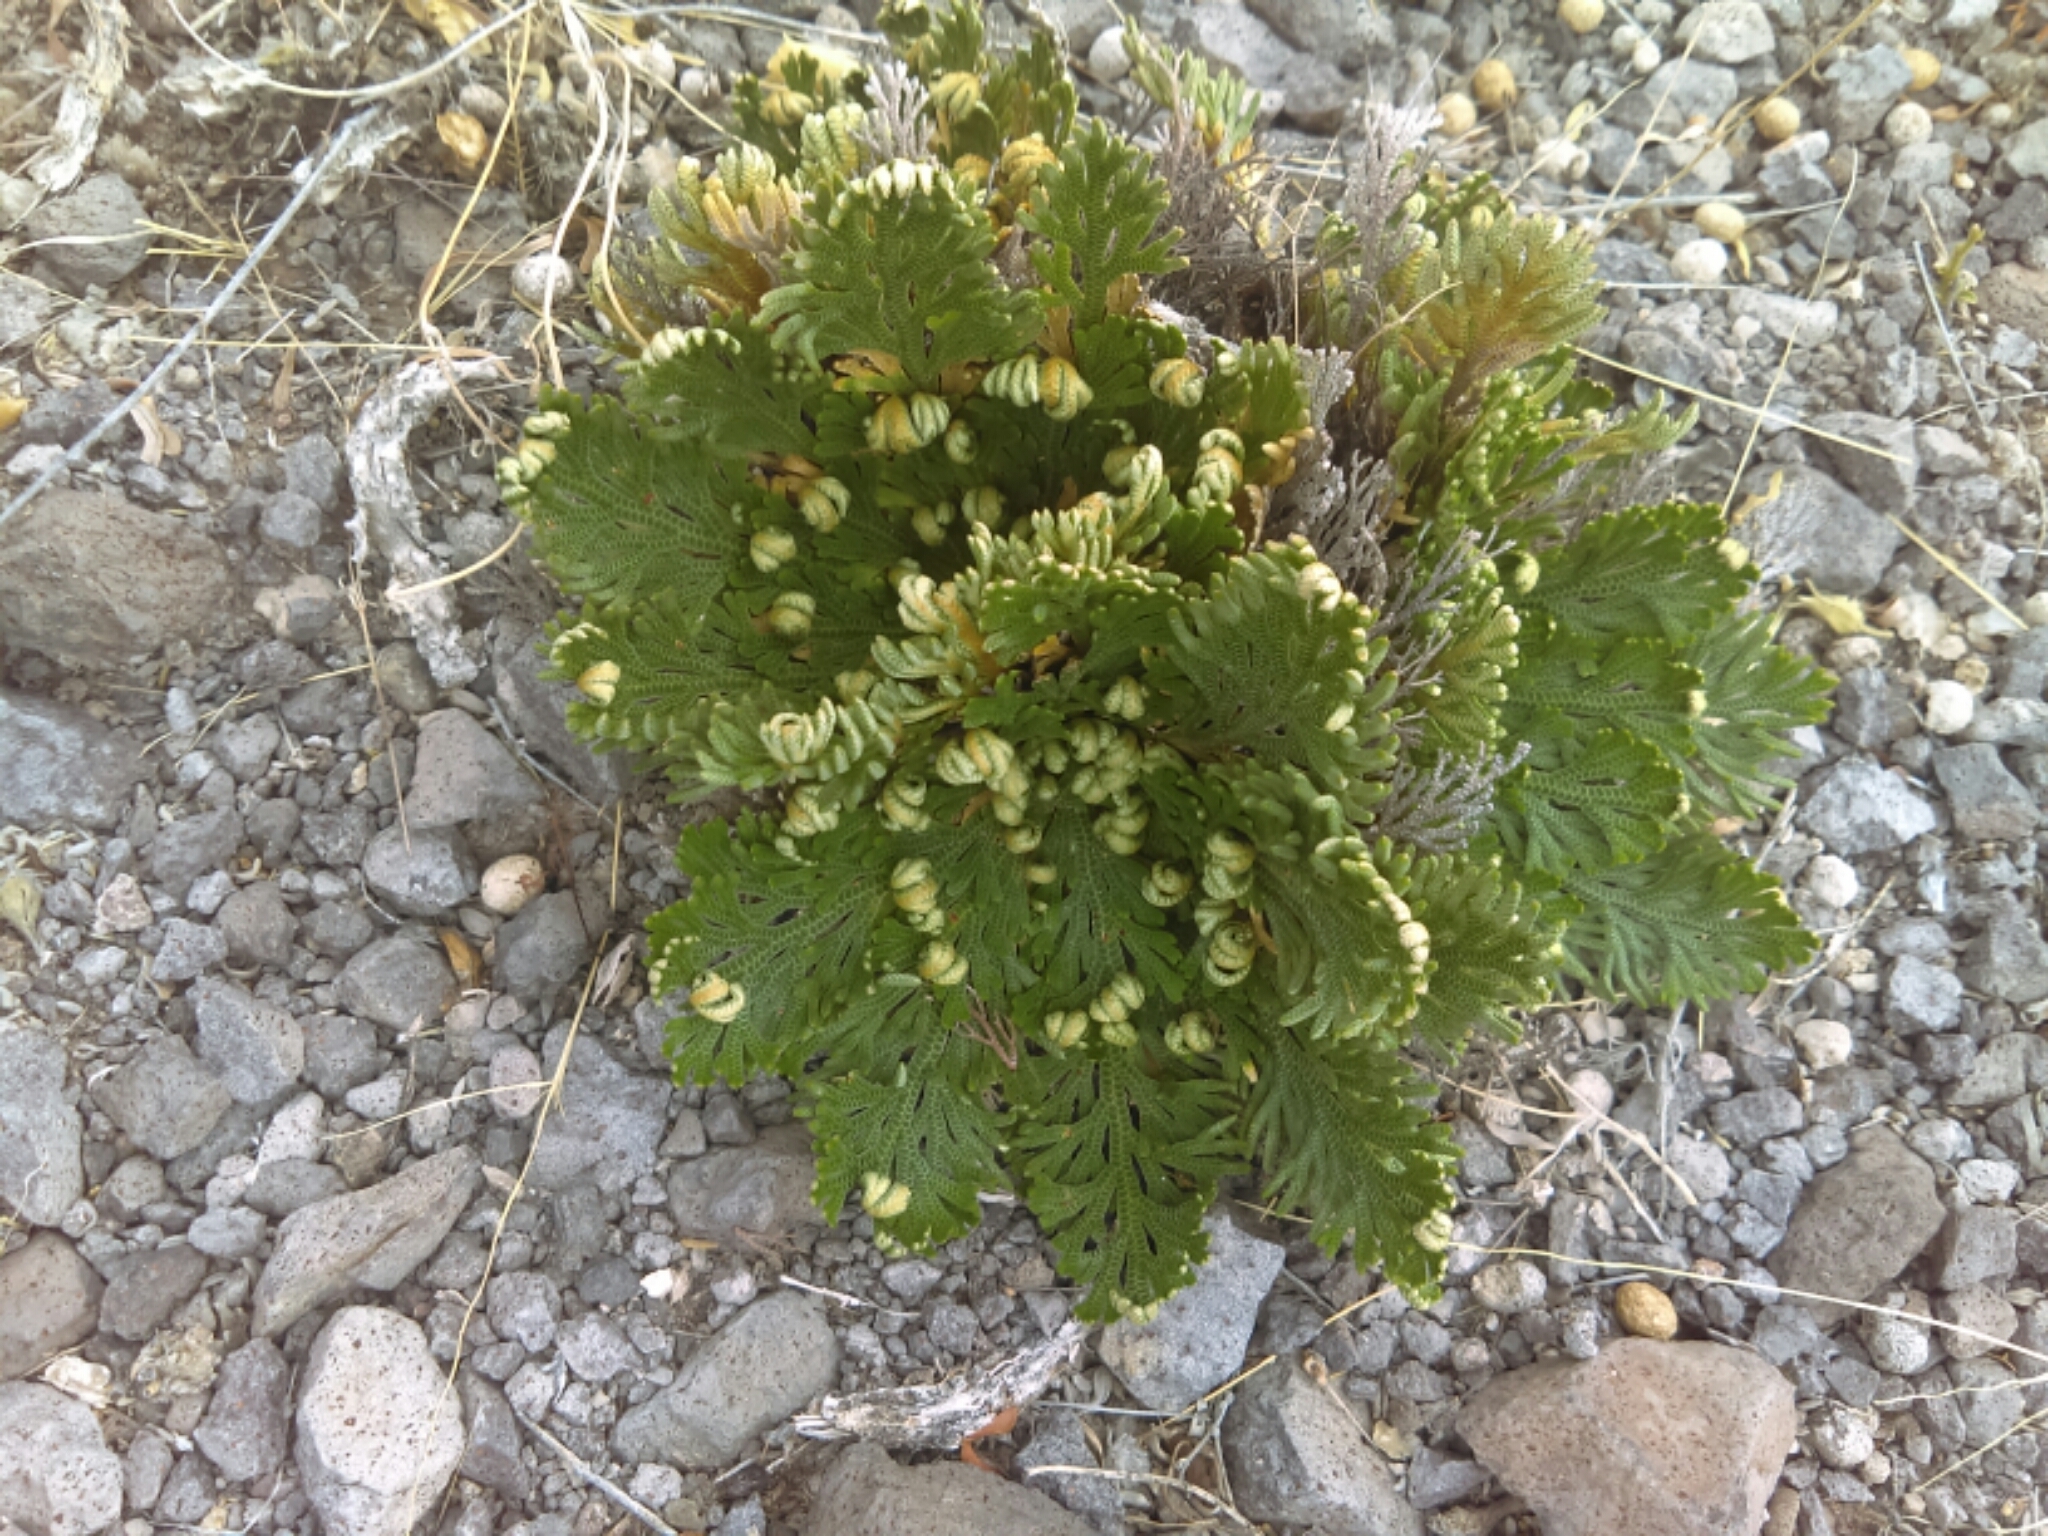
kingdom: Plantae
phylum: Tracheophyta
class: Lycopodiopsida
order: Selaginellales
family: Selaginellaceae
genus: Selaginella
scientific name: Selaginella lepidophylla
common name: Rose-of-jericho
